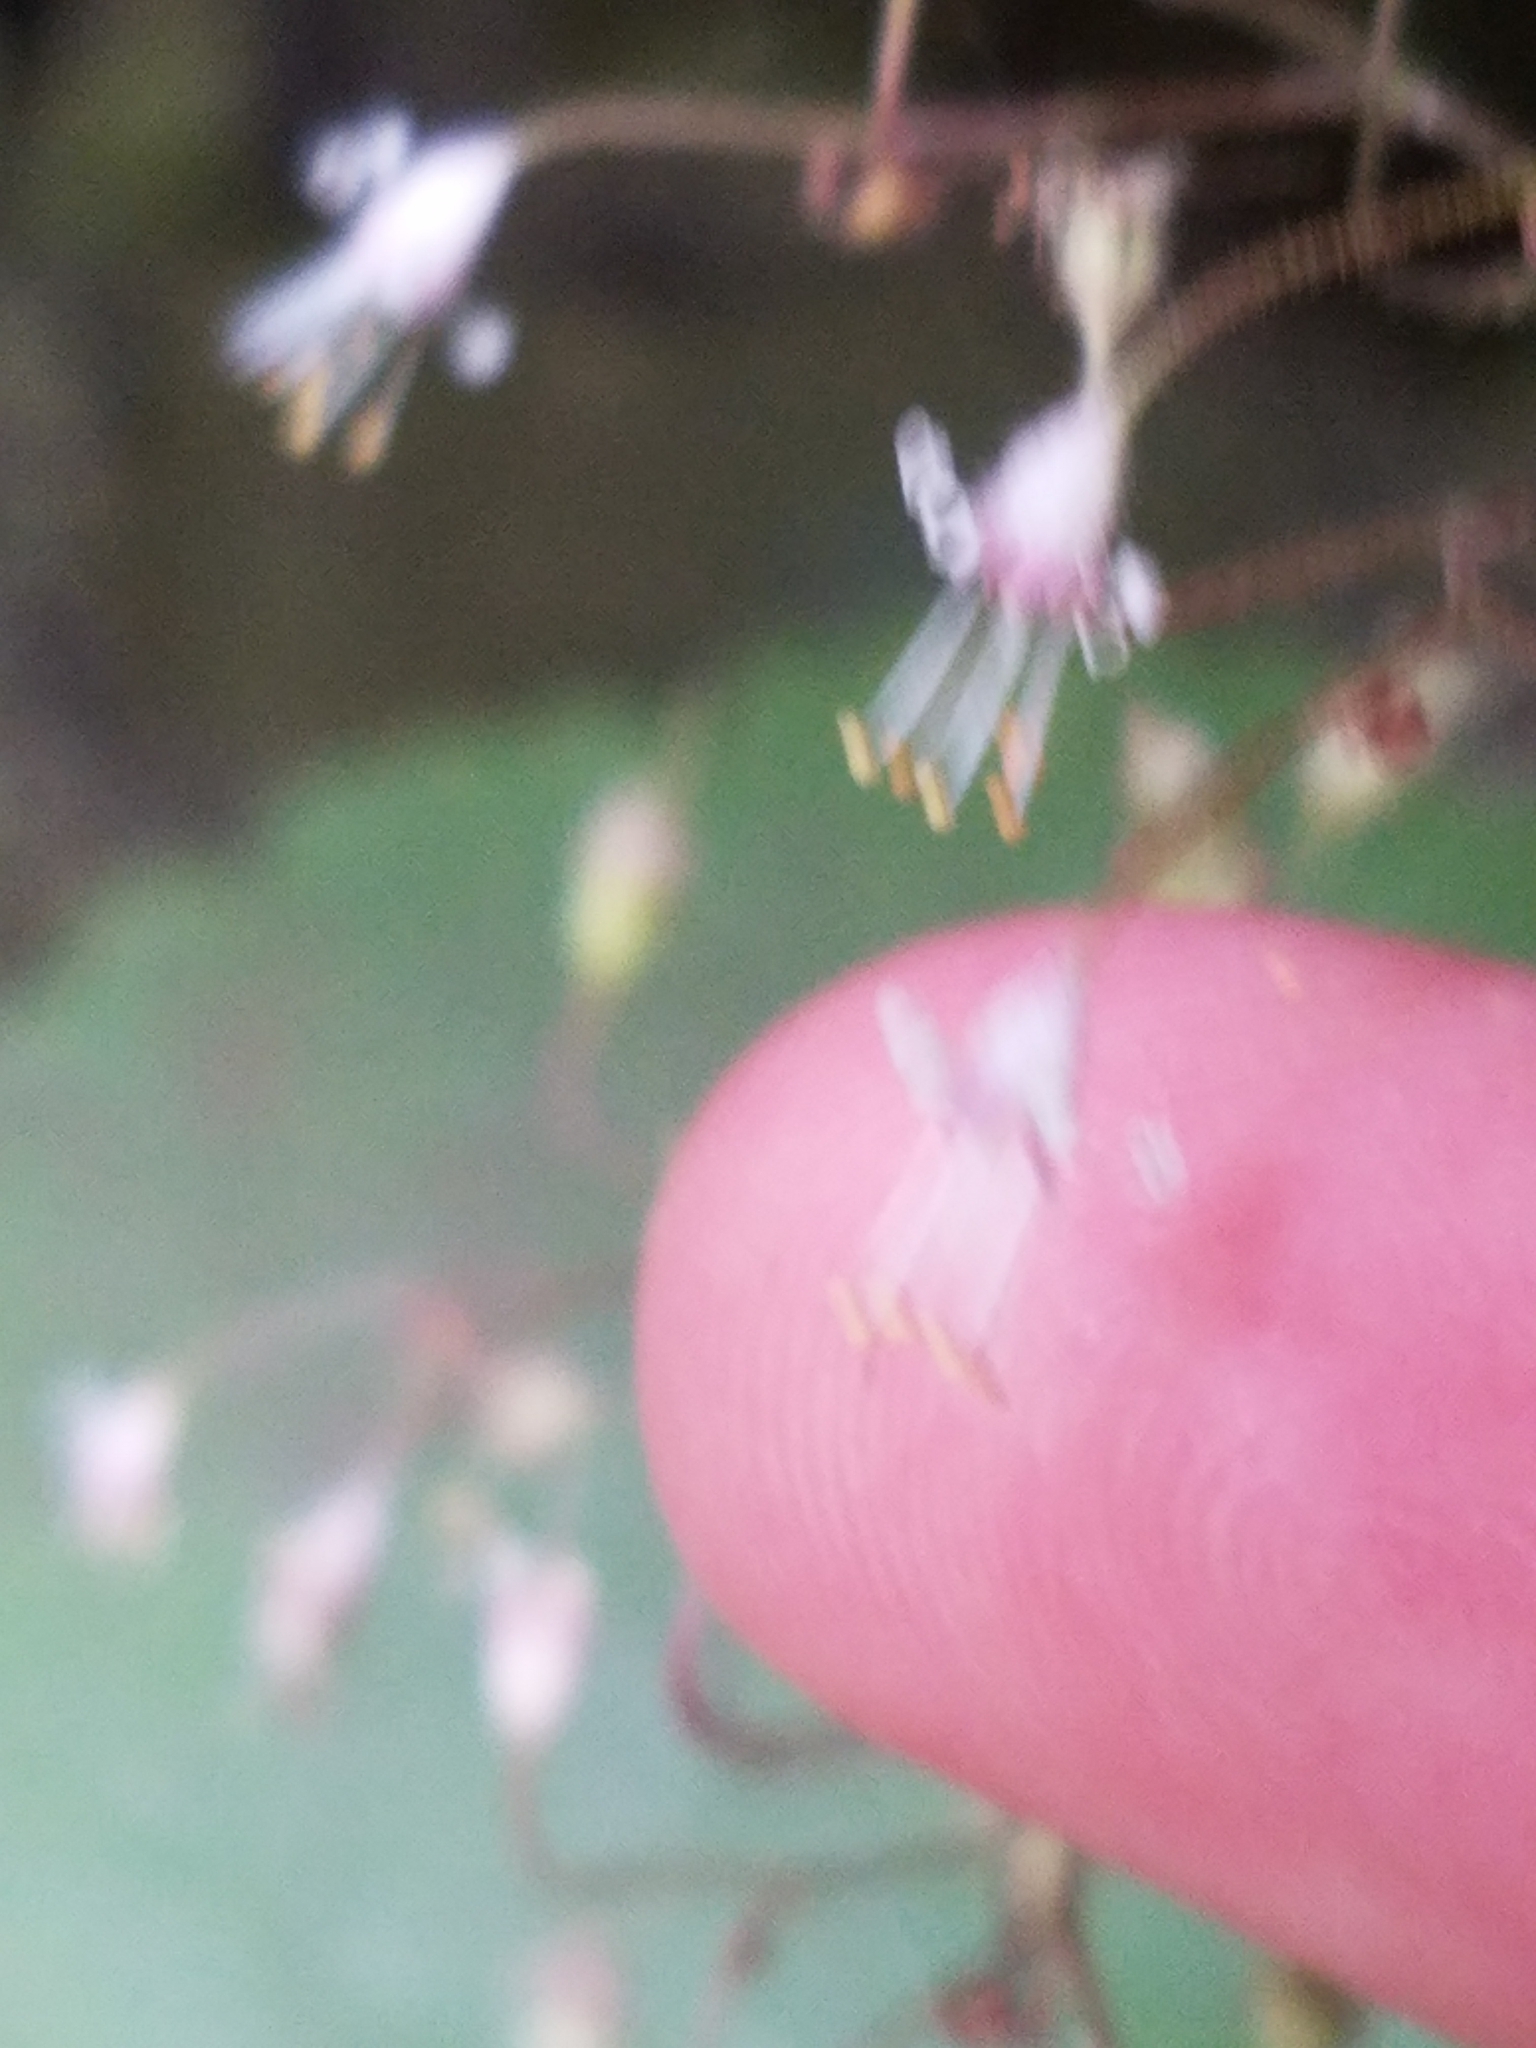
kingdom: Plantae
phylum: Tracheophyta
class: Magnoliopsida
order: Saxifragales
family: Saxifragaceae
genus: Heuchera
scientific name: Heuchera parviflora
